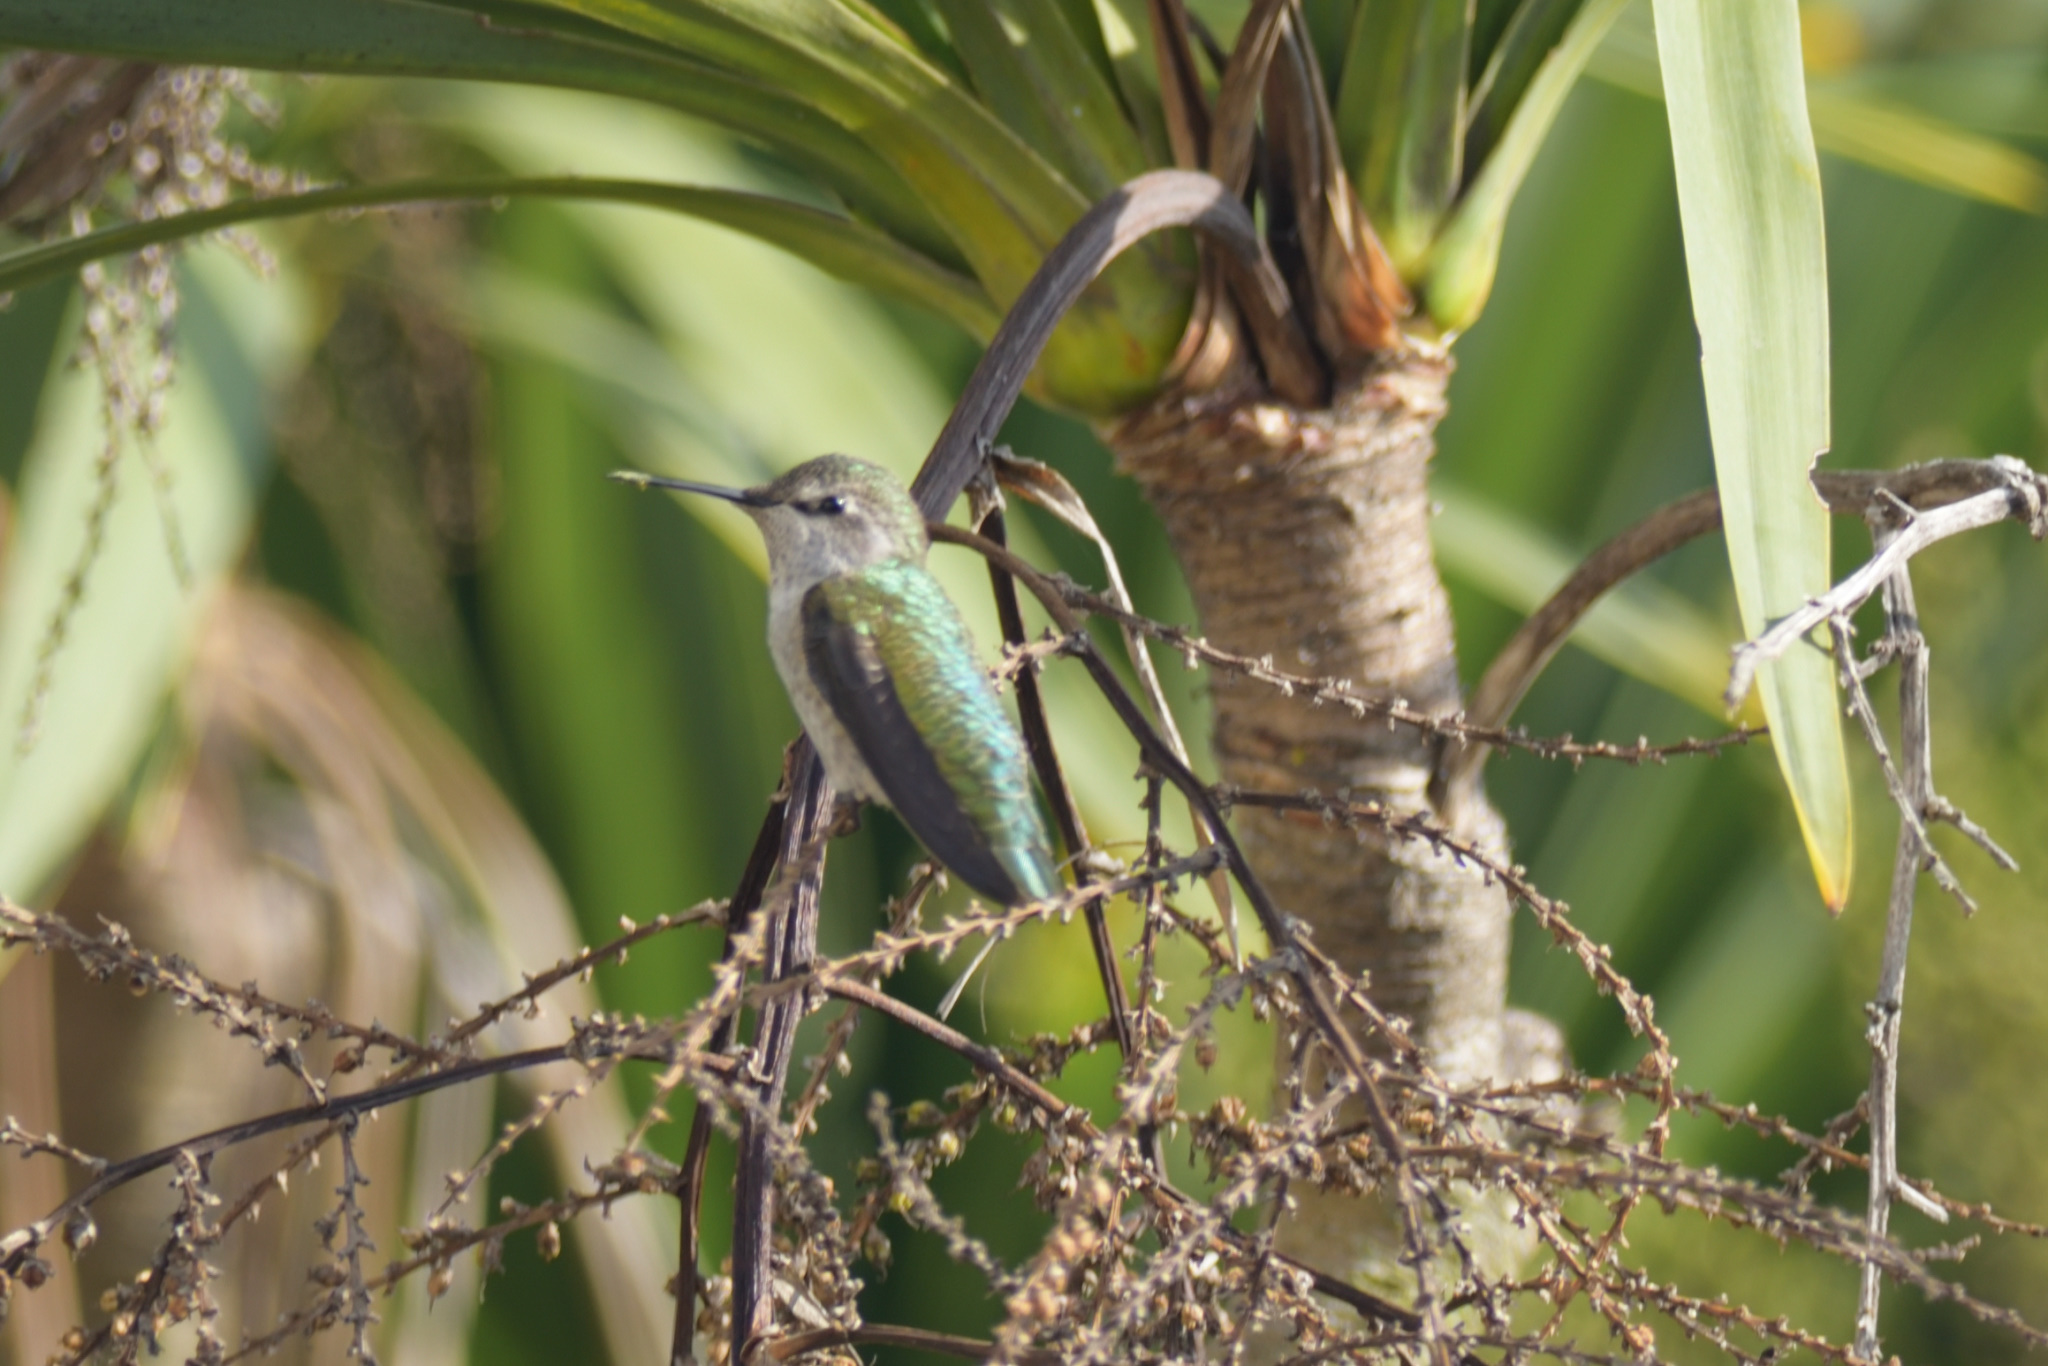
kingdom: Animalia
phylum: Chordata
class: Aves
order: Apodiformes
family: Trochilidae
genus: Calypte
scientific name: Calypte anna
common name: Anna's hummingbird
